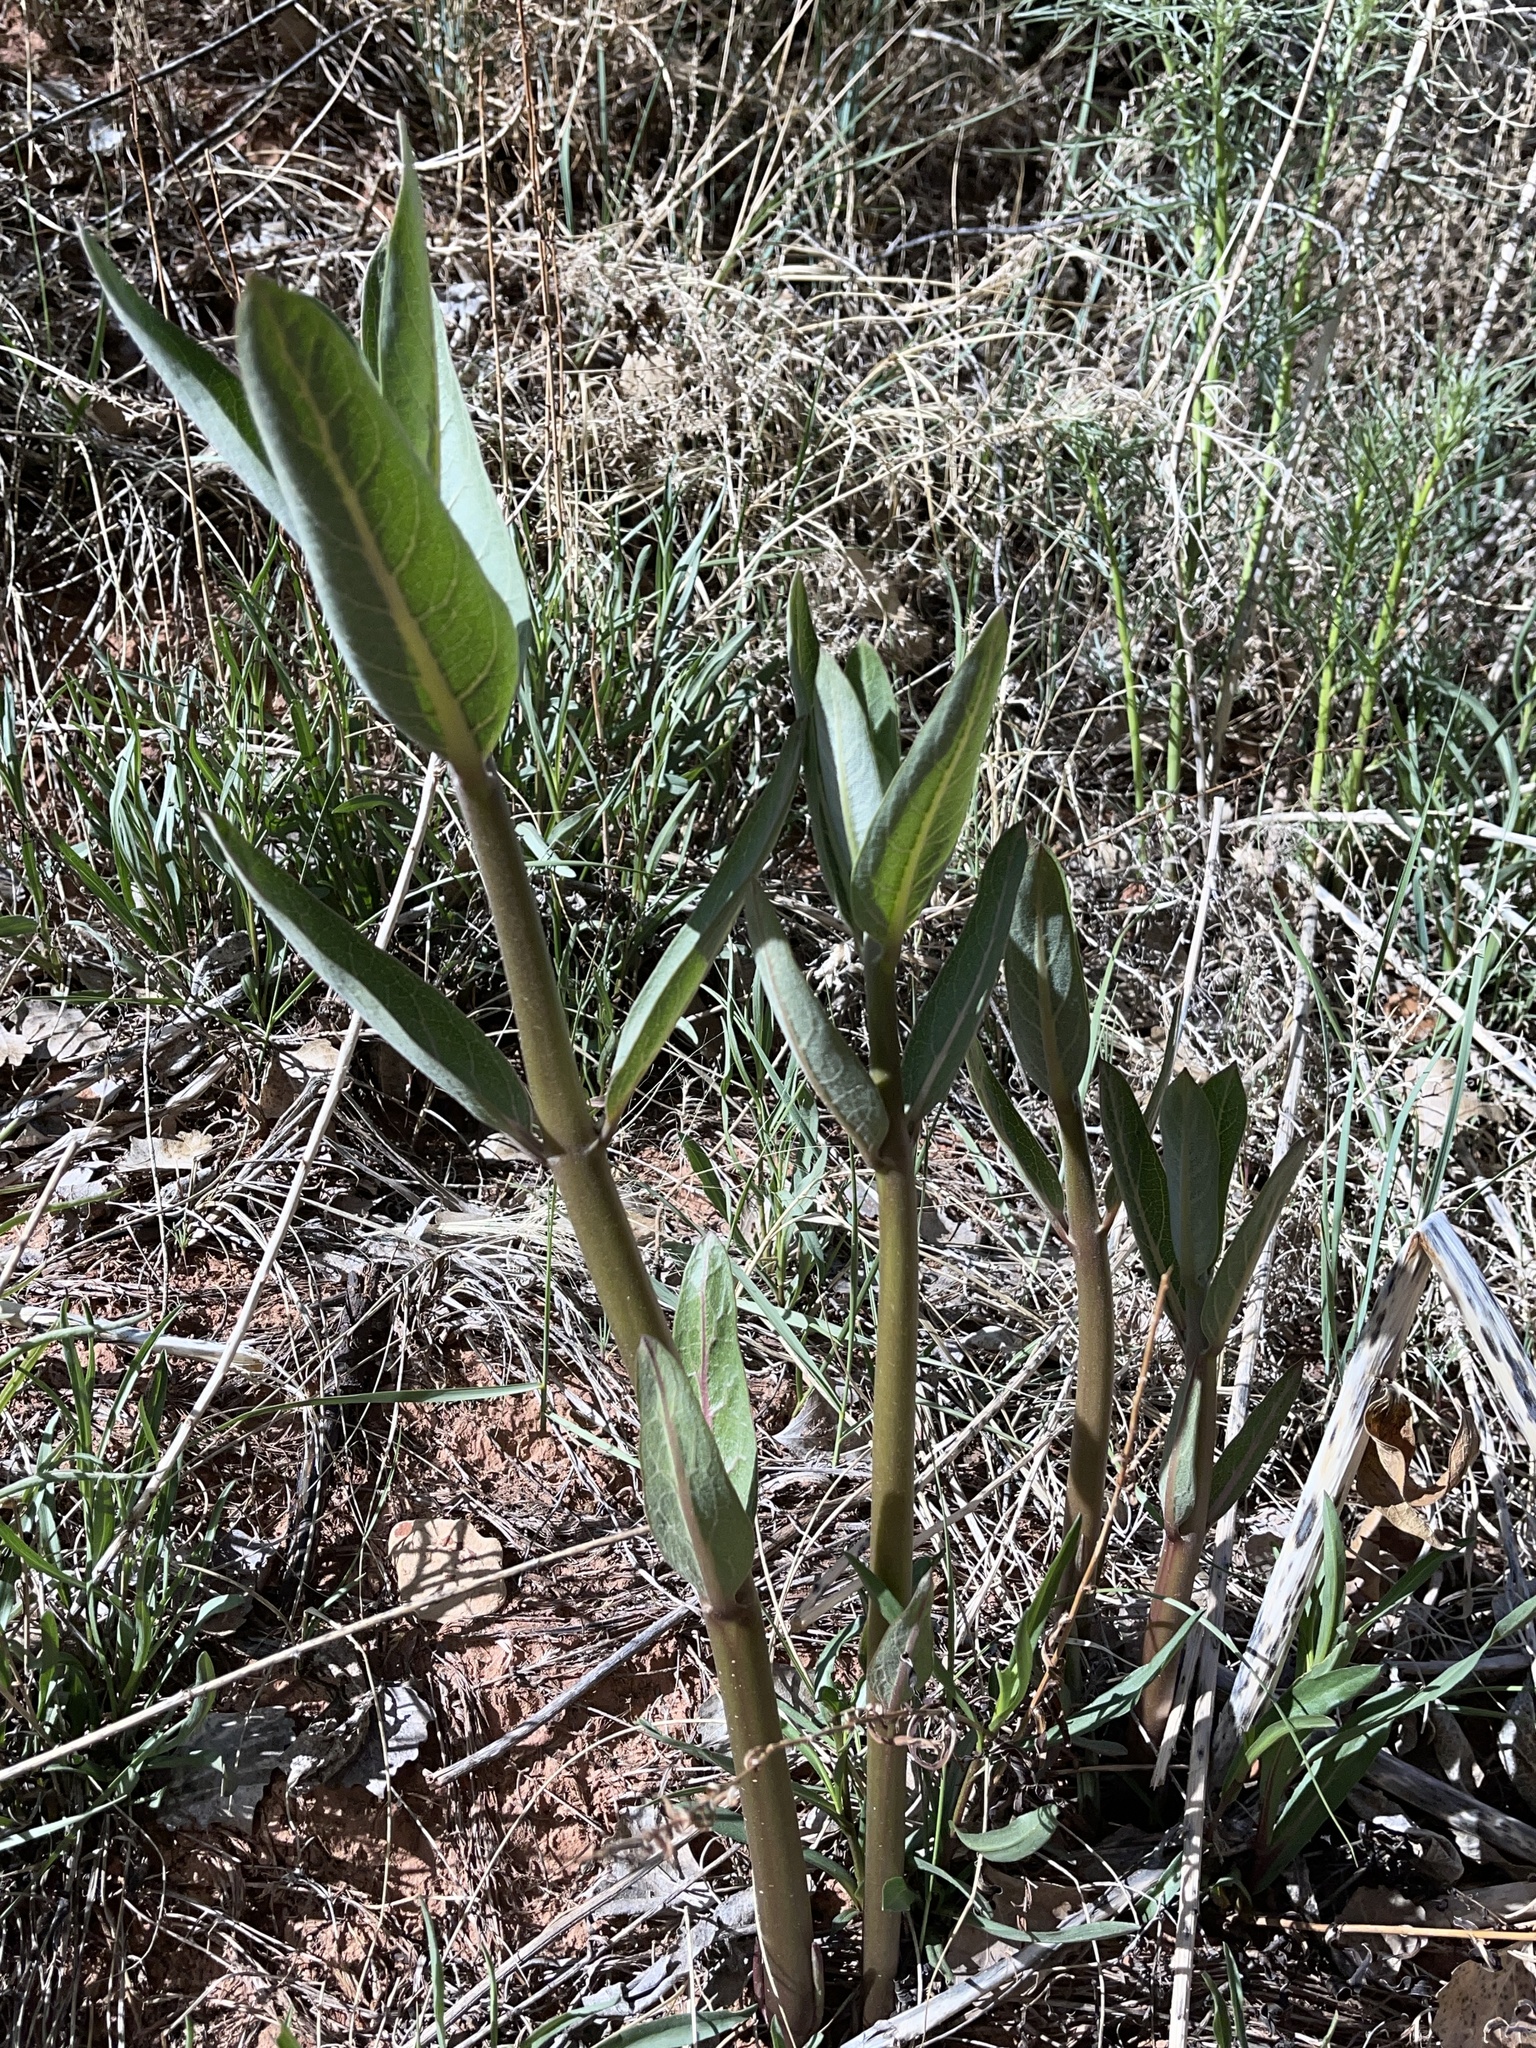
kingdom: Plantae
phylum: Tracheophyta
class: Magnoliopsida
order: Gentianales
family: Apocynaceae
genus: Asclepias
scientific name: Asclepias speciosa
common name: Showy milkweed
